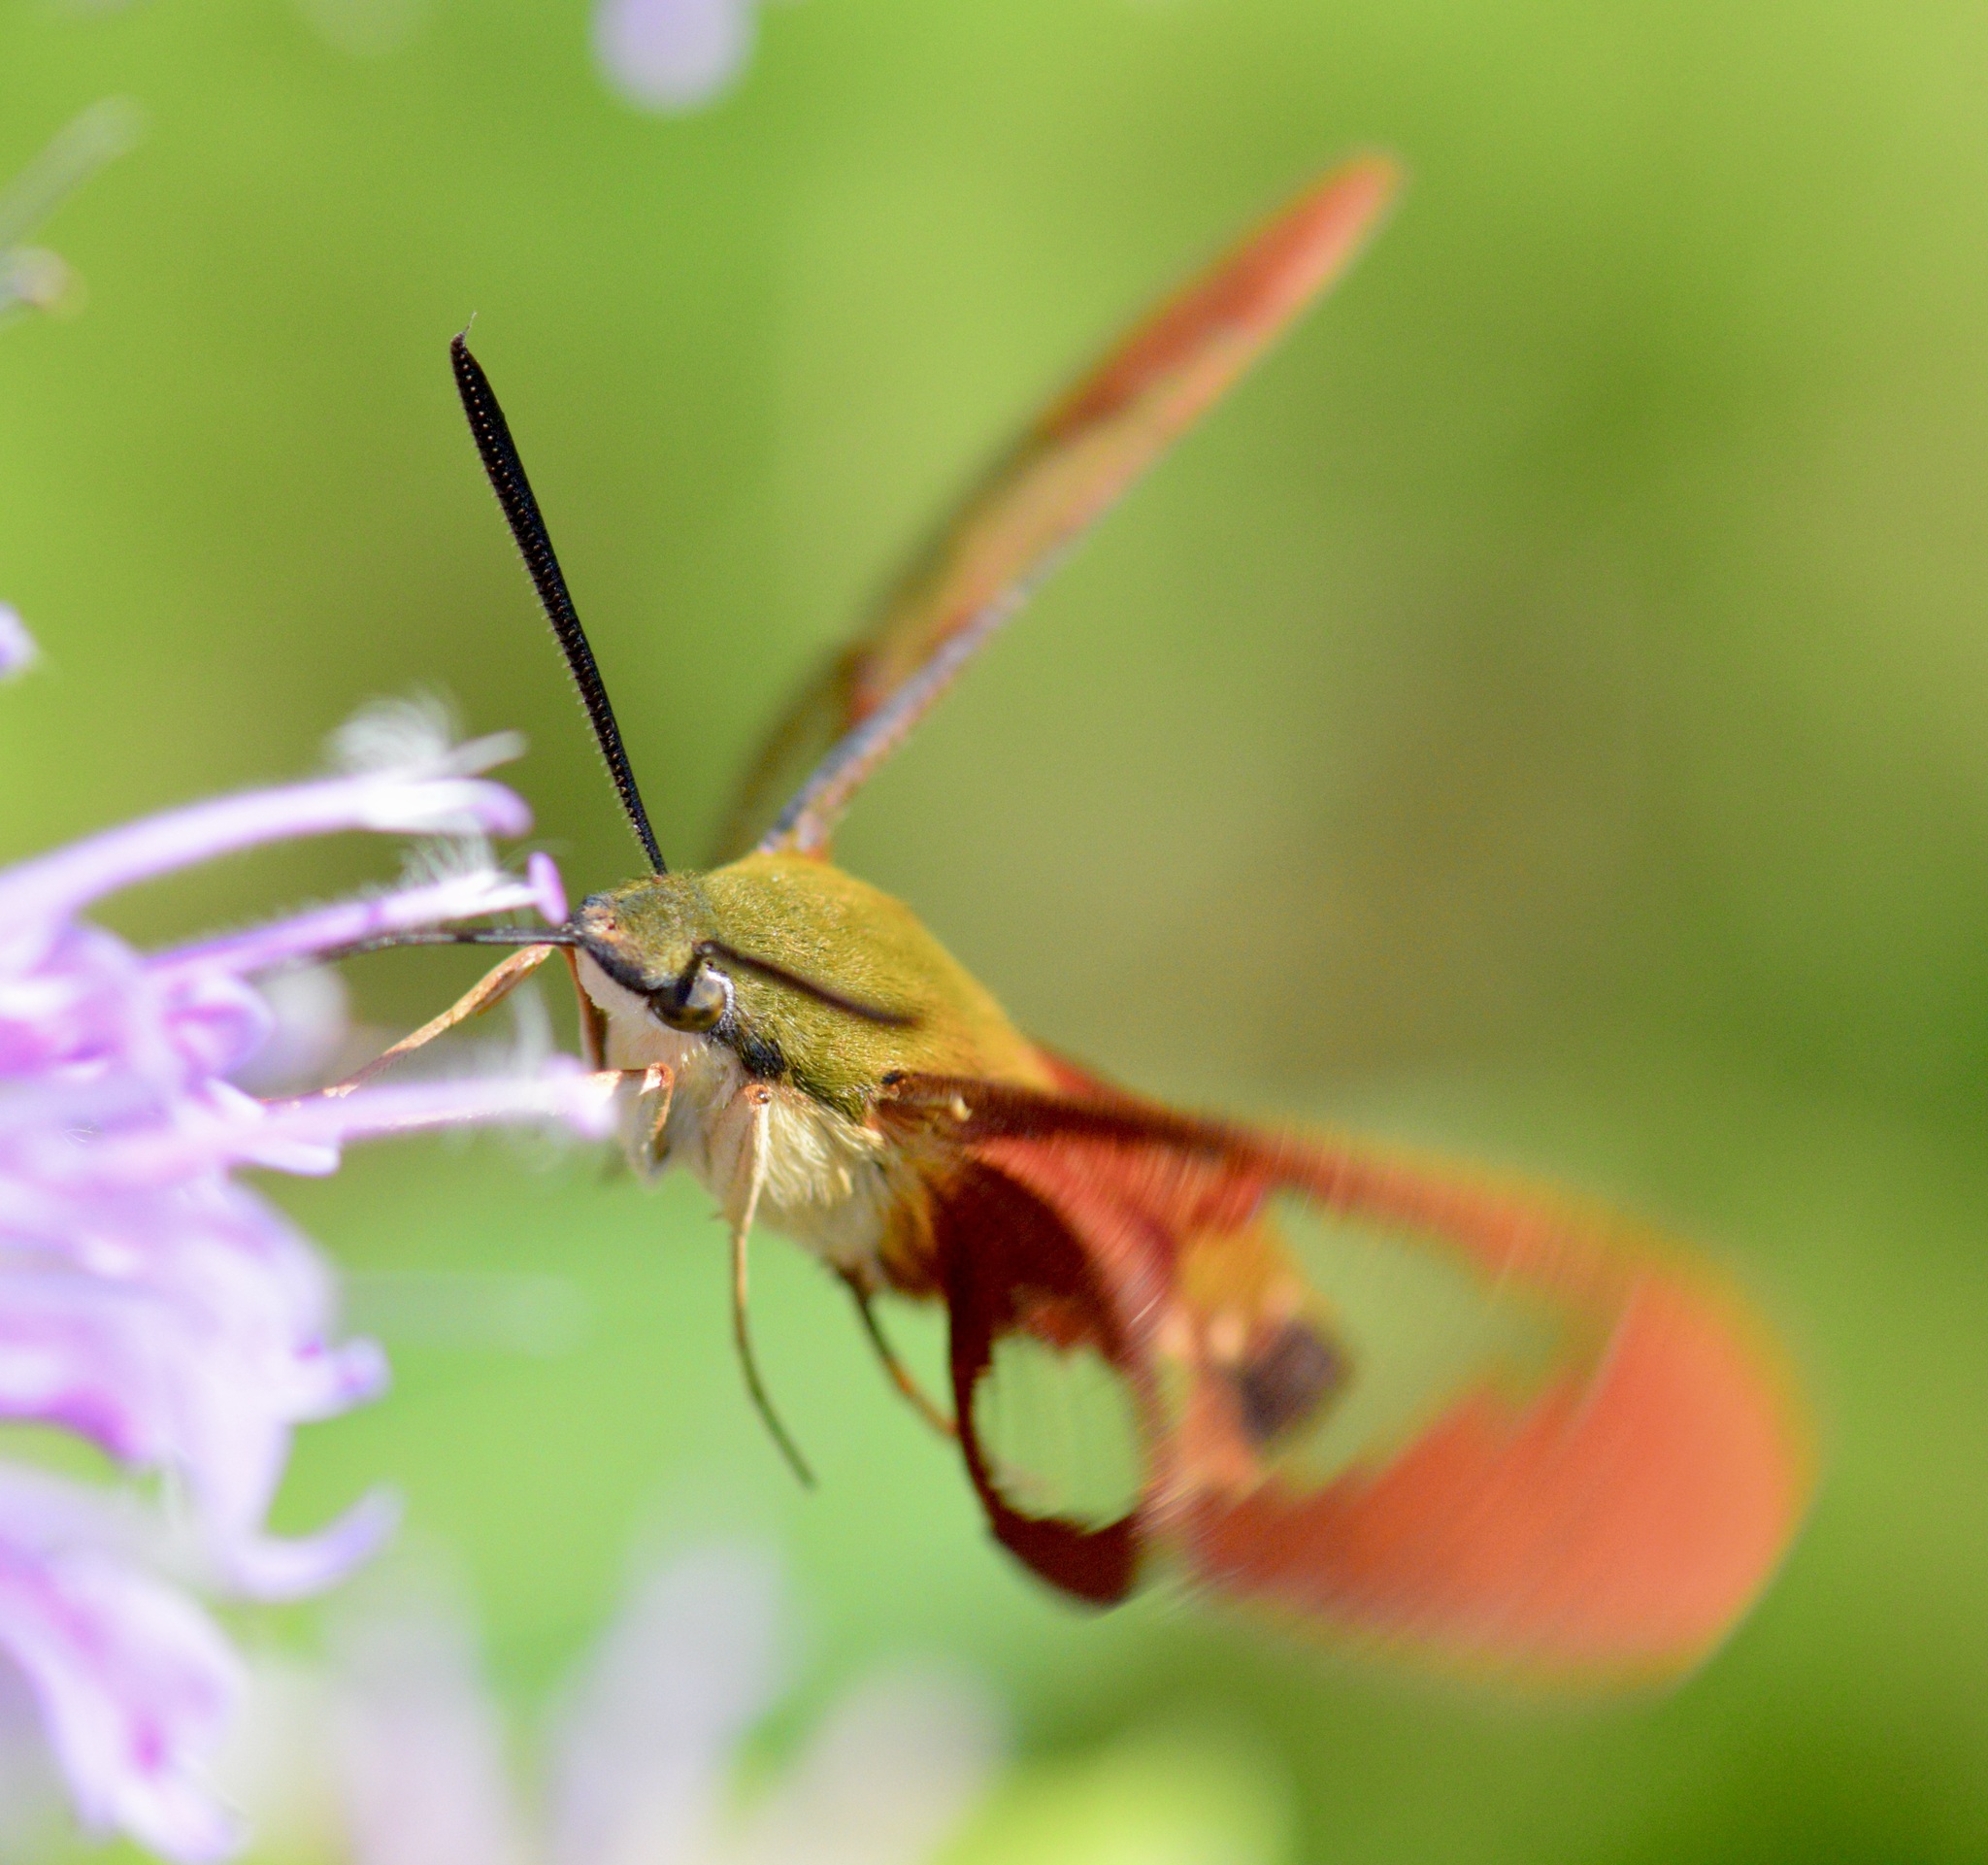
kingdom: Animalia
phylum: Arthropoda
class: Insecta
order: Lepidoptera
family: Sphingidae
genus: Hemaris
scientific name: Hemaris thysbe
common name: Common clear-wing
